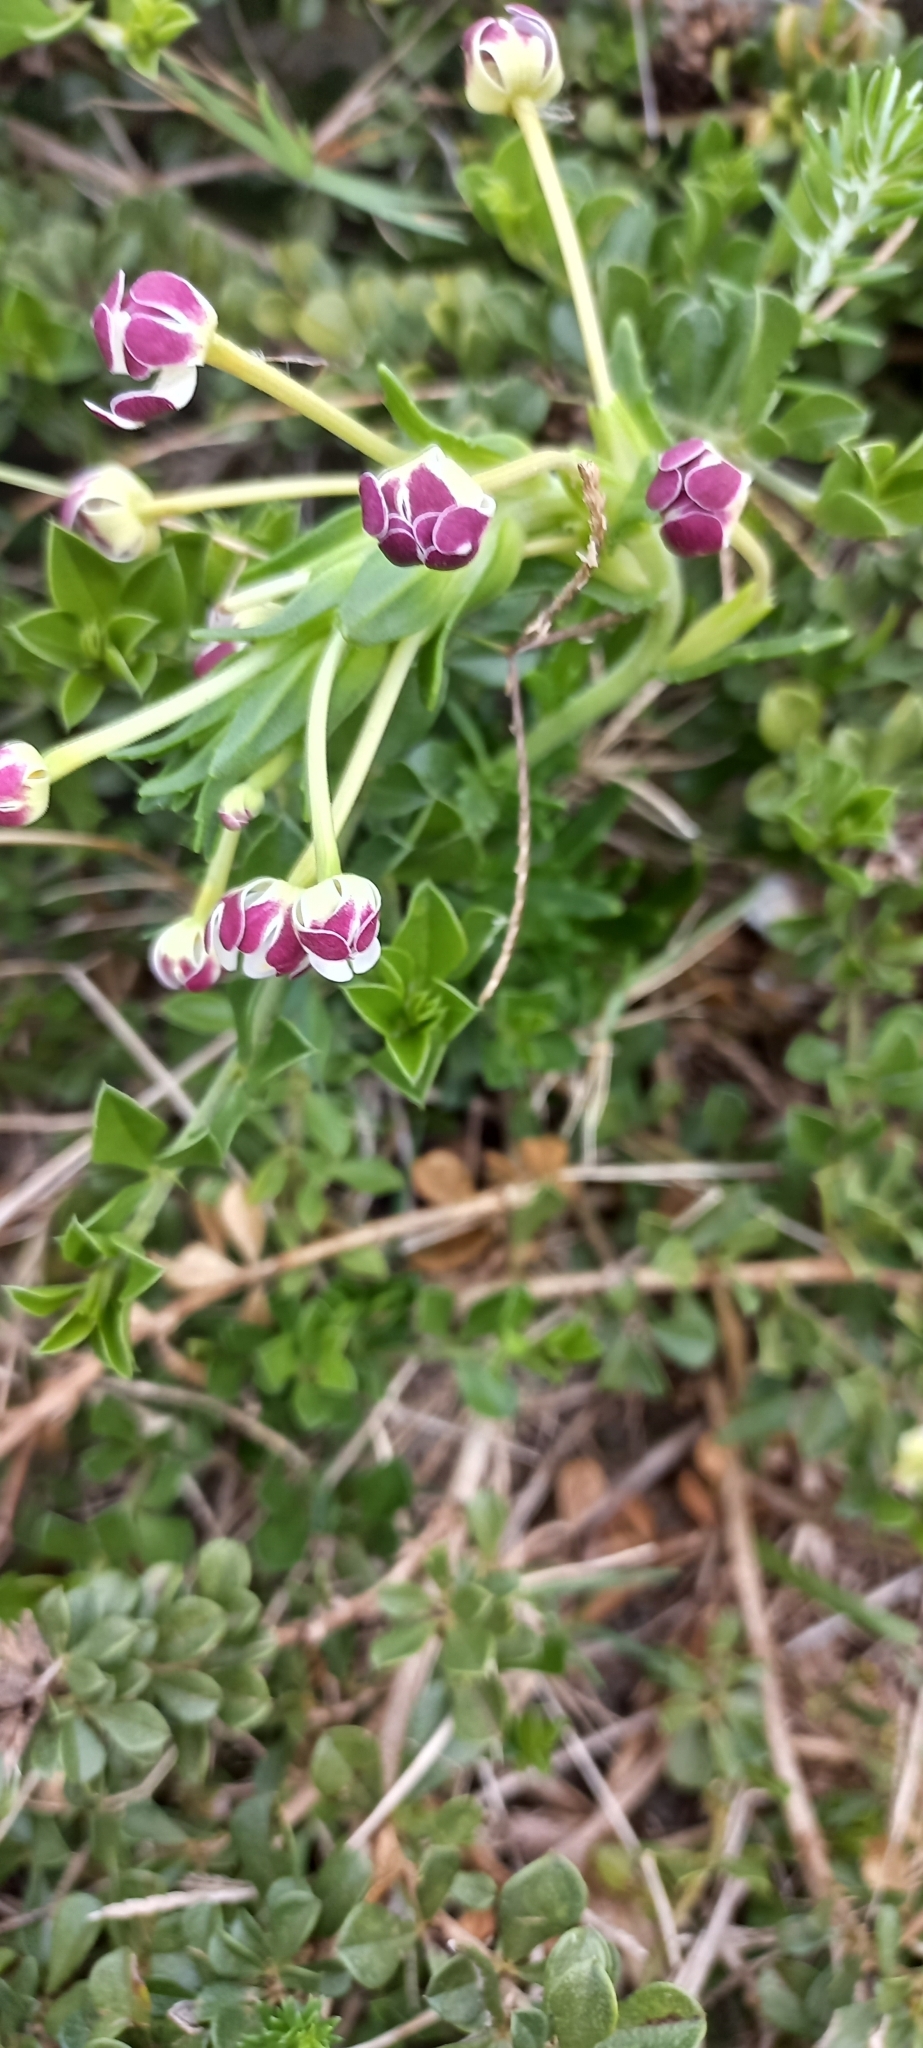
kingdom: Plantae
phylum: Tracheophyta
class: Magnoliopsida
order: Lamiales
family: Scrophulariaceae
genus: Zaluzianskya
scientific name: Zaluzianskya capensis
